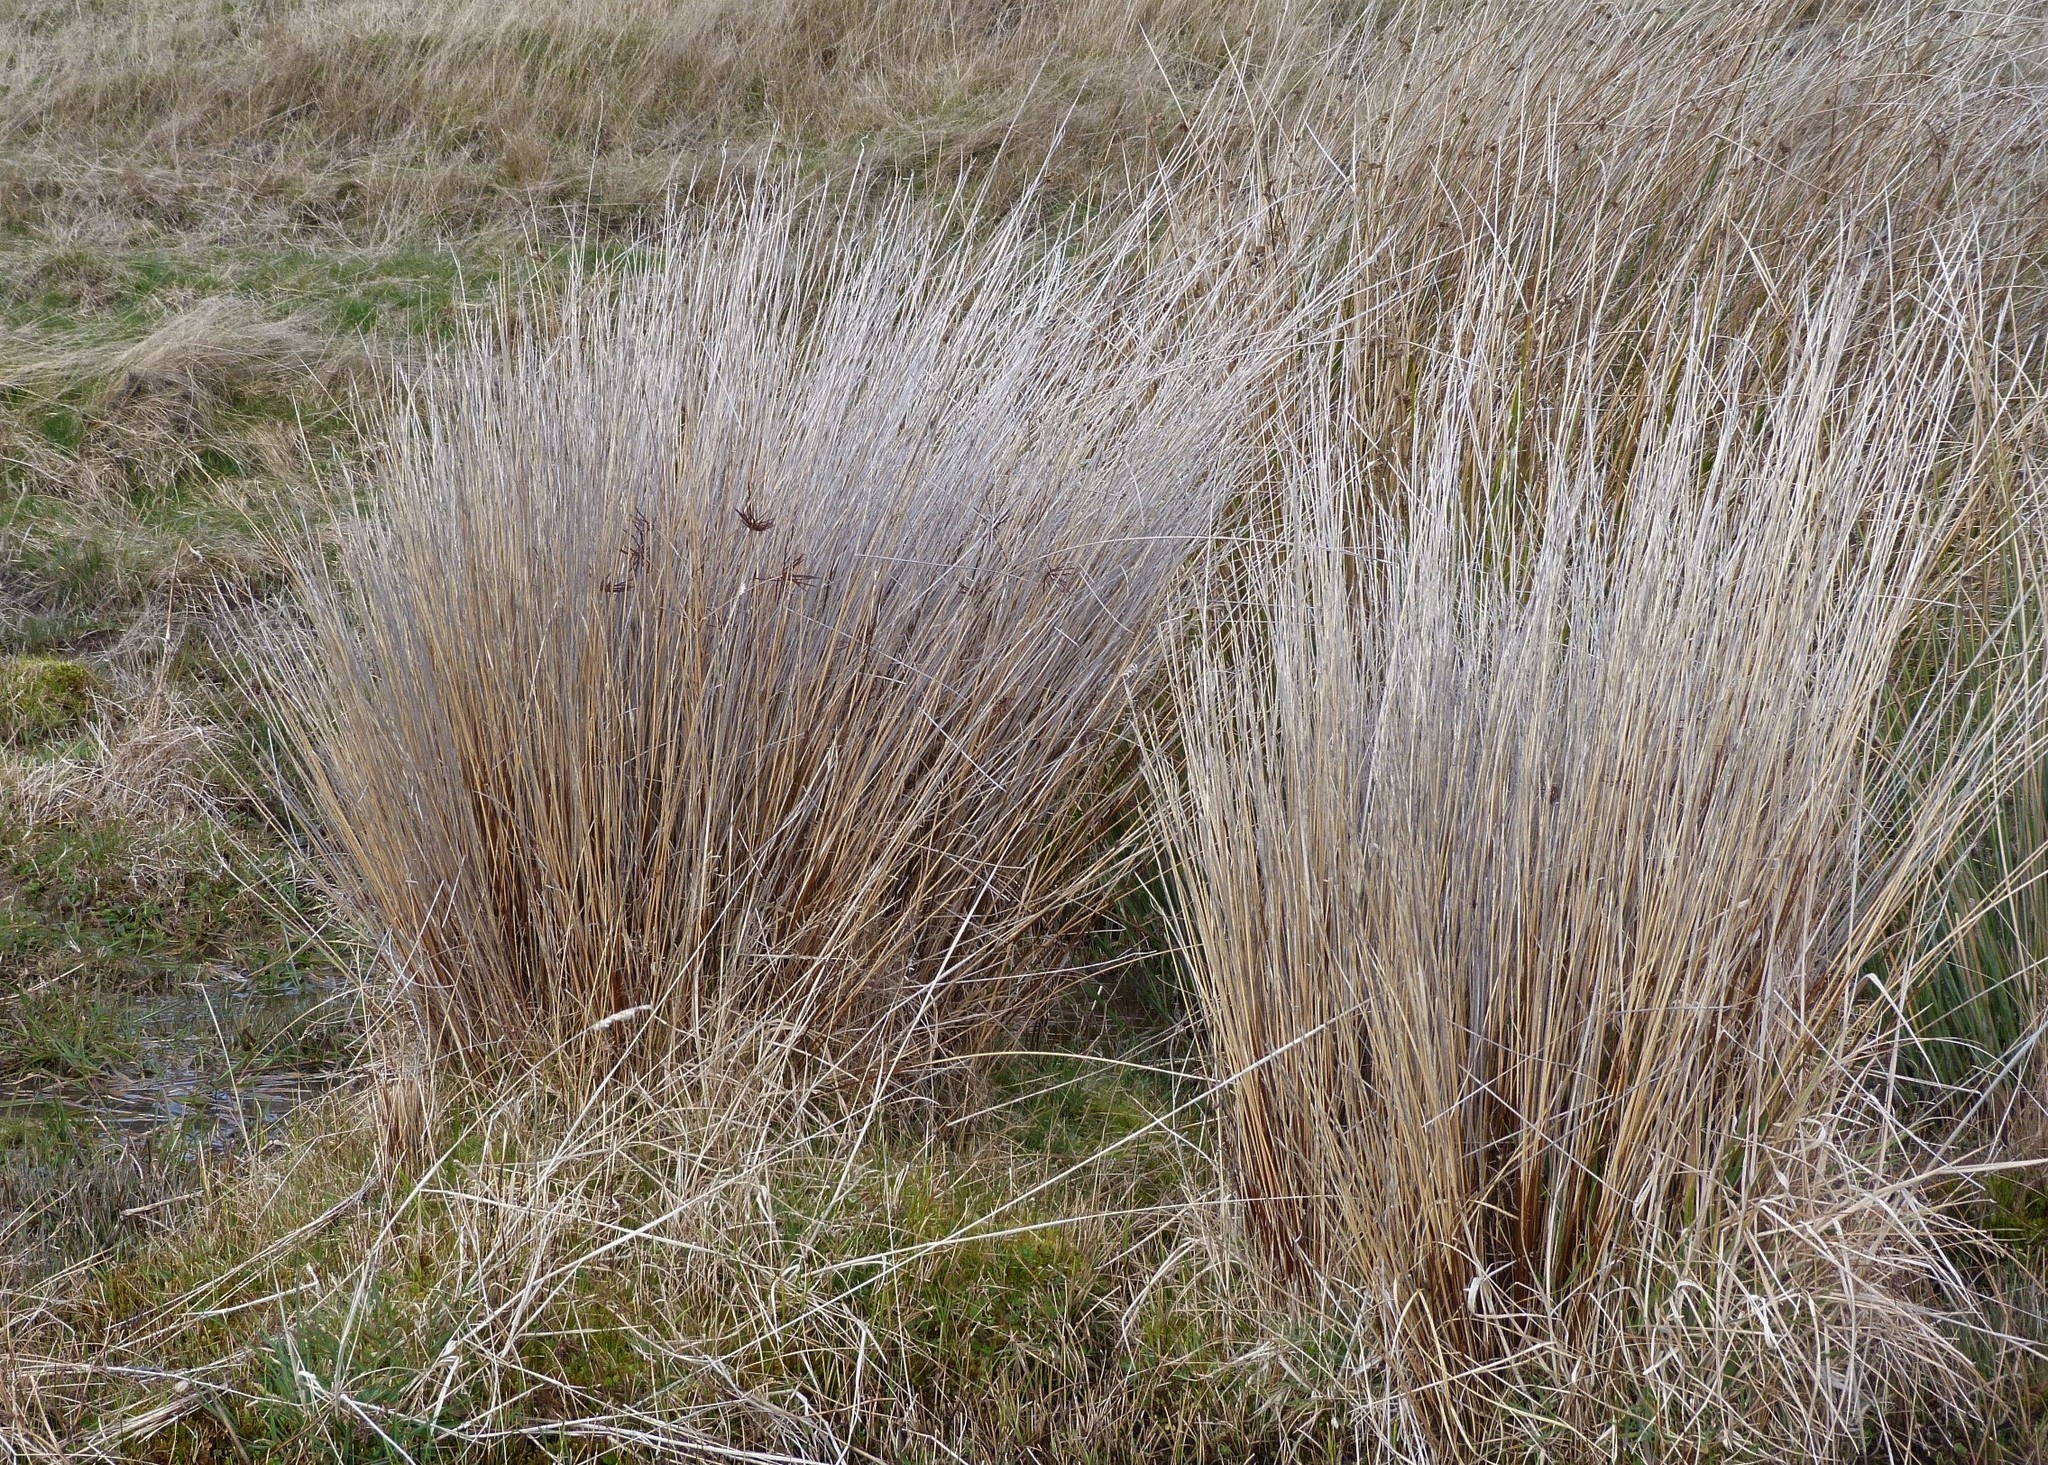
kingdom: Plantae
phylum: Tracheophyta
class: Liliopsida
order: Poales
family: Cyperaceae
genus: Schoenus
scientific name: Schoenus pauciflorus
